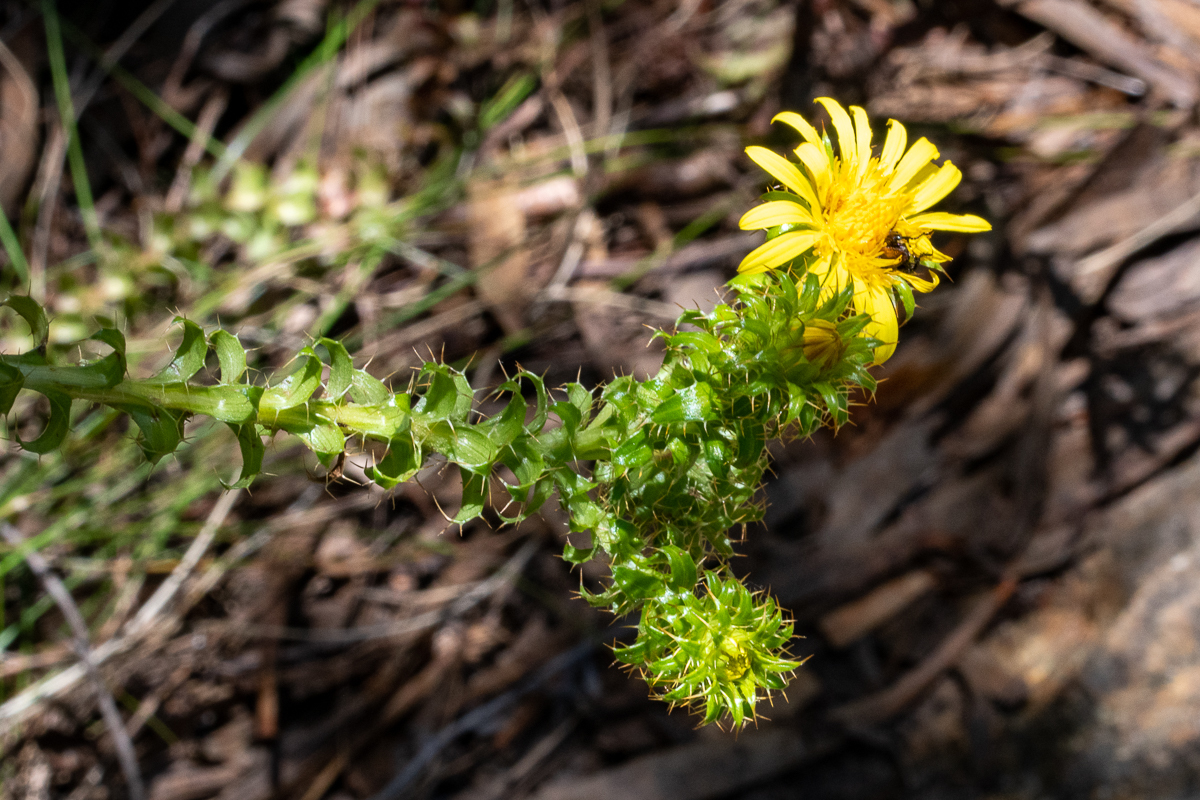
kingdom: Plantae
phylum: Tracheophyta
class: Magnoliopsida
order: Asterales
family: Asteraceae
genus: Cullumia
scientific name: Cullumia setosa
